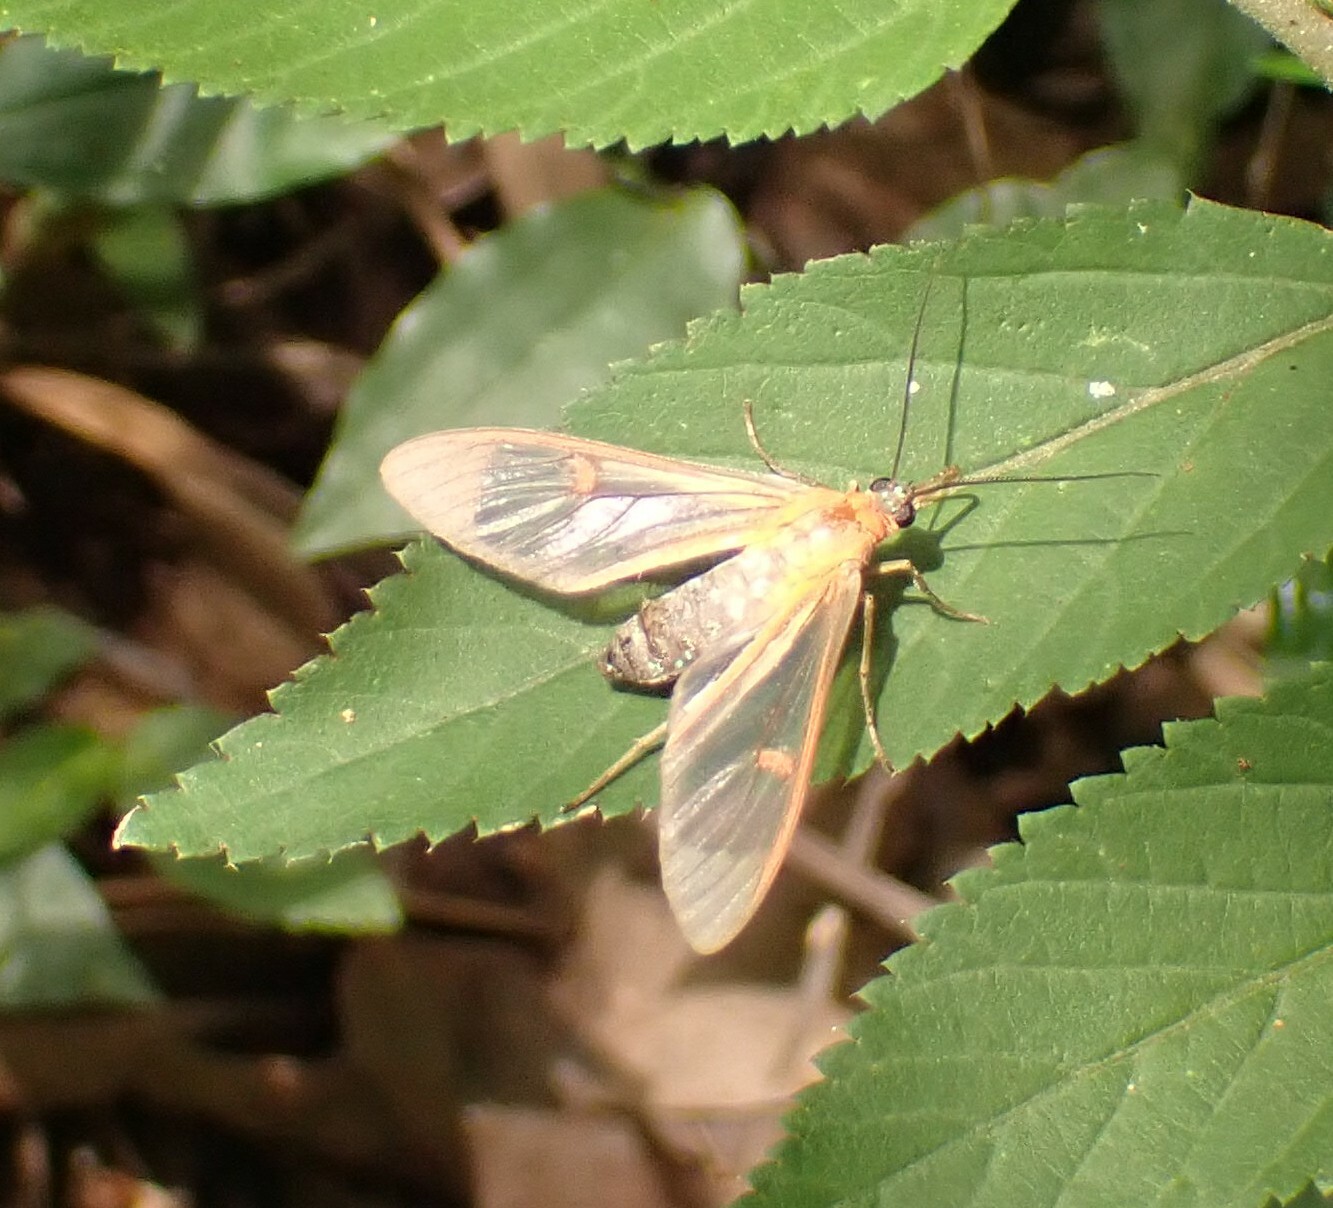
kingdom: Animalia
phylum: Arthropoda
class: Insecta
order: Lepidoptera
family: Erebidae
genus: Lepidoneiva
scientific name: Lepidoneiva erubescens
